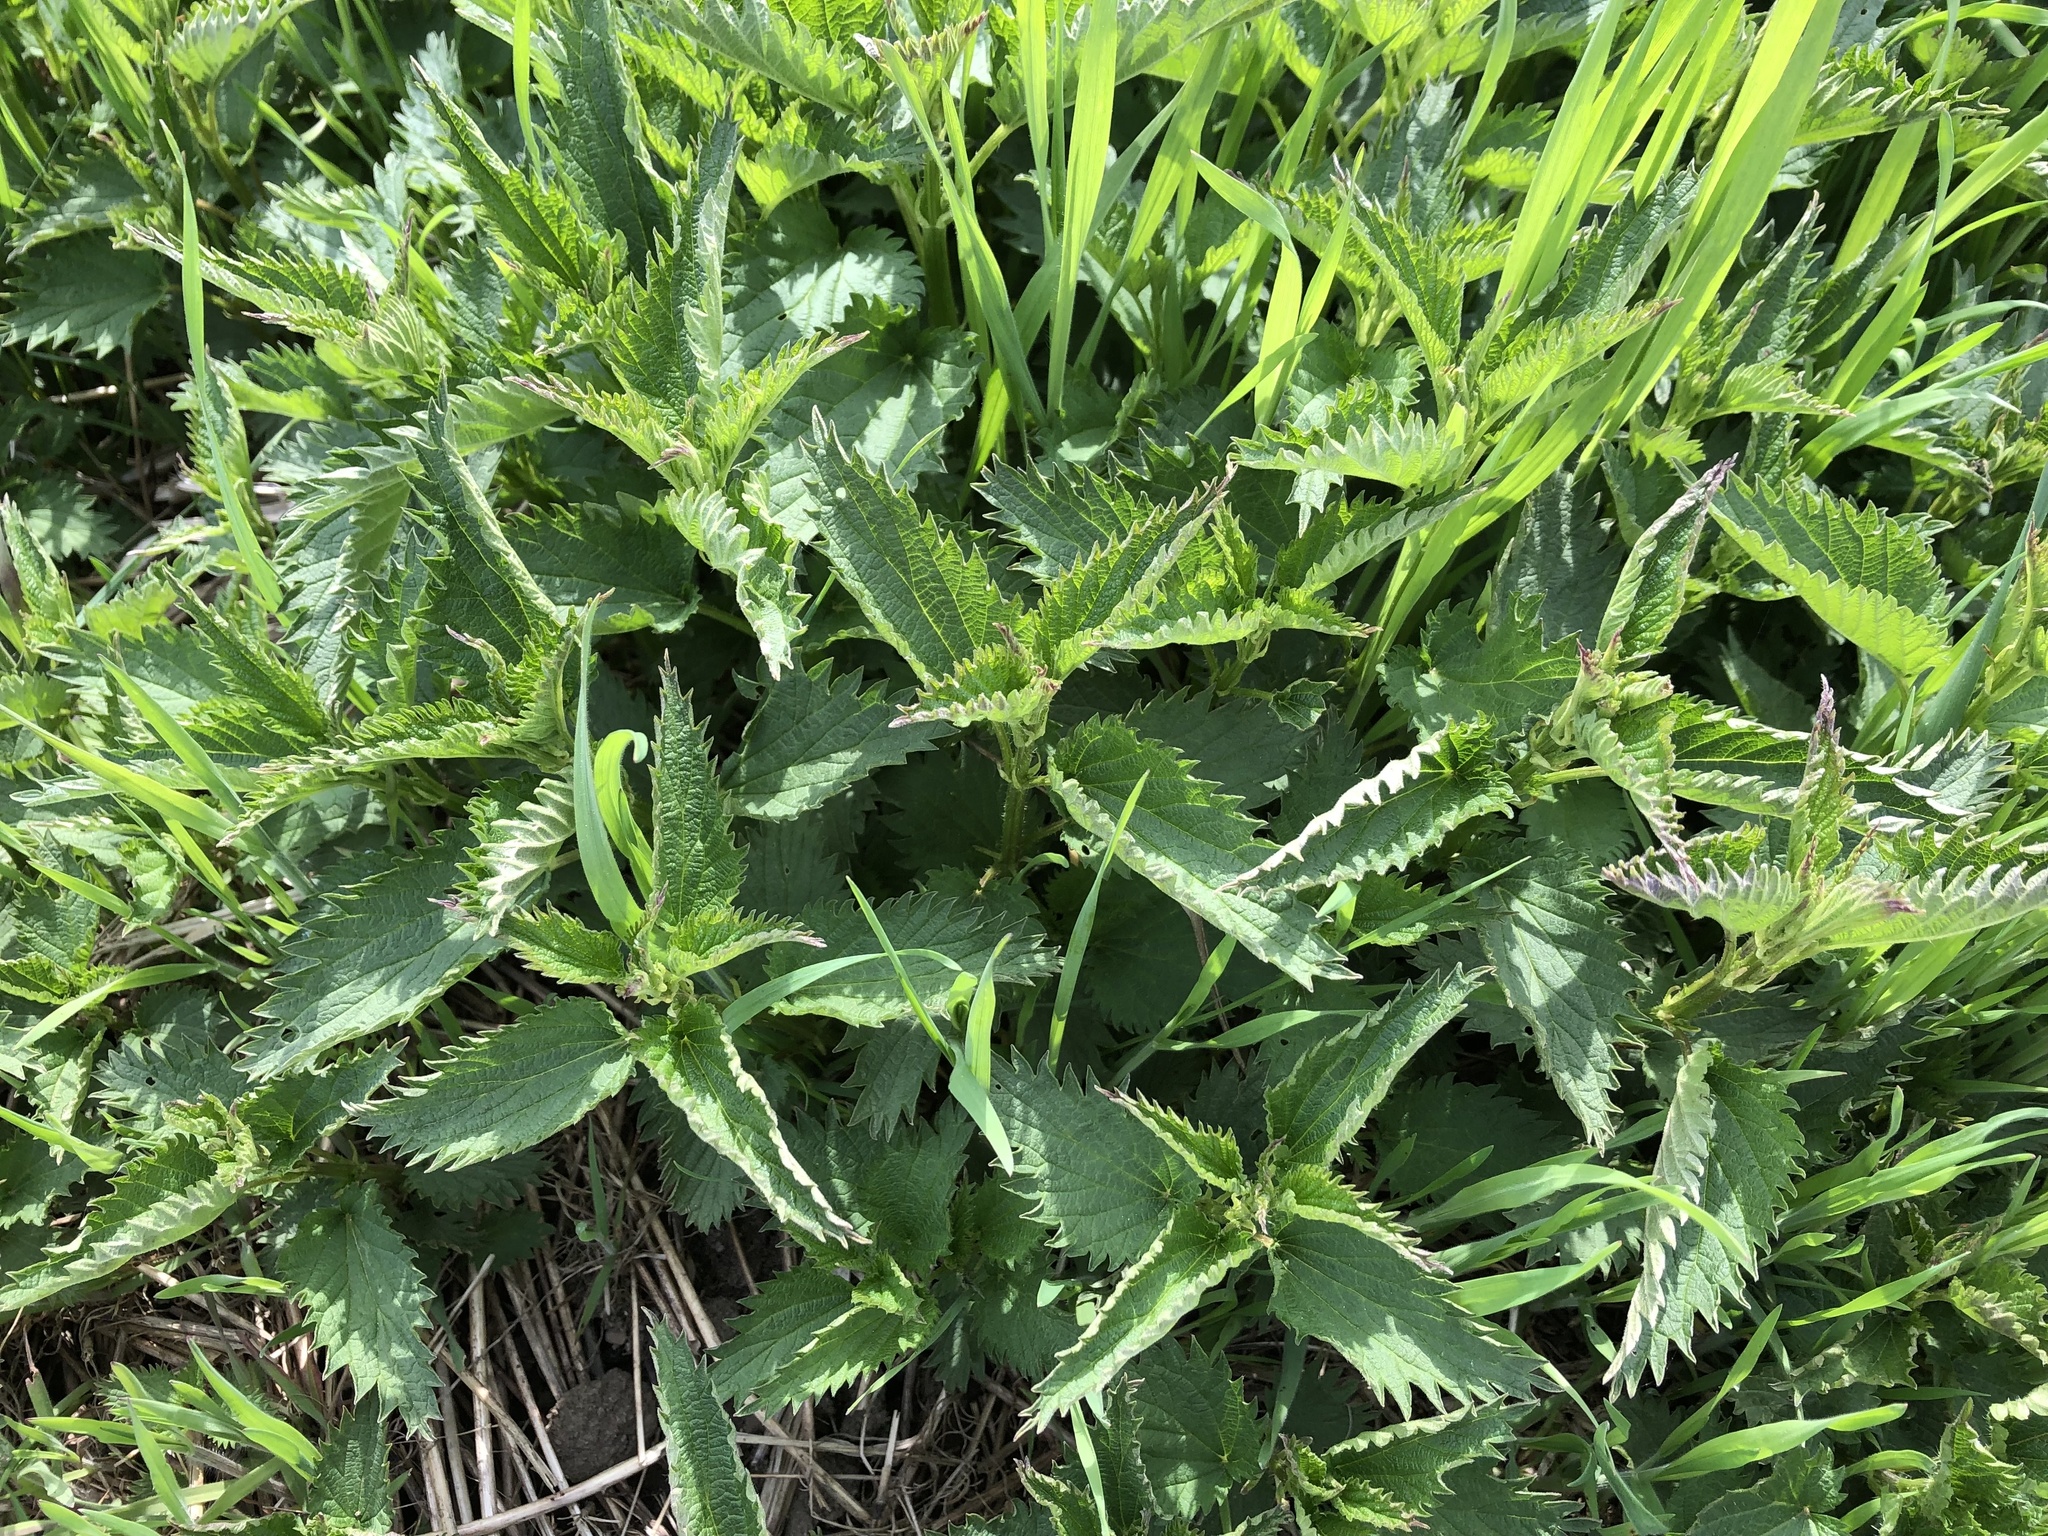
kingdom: Plantae
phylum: Tracheophyta
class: Magnoliopsida
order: Rosales
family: Urticaceae
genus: Urtica
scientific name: Urtica dioica
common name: Common nettle
